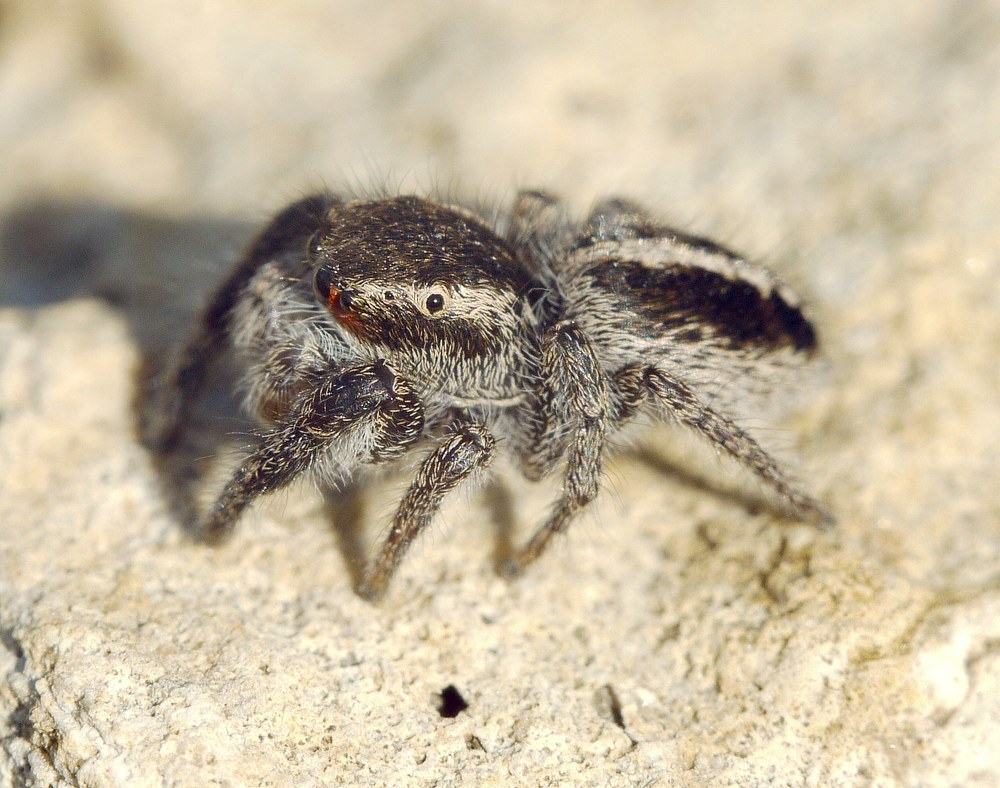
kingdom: Animalia
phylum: Arthropoda
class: Arachnida
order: Araneae
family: Salticidae
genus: Pellenes
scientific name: Pellenes seriatus
